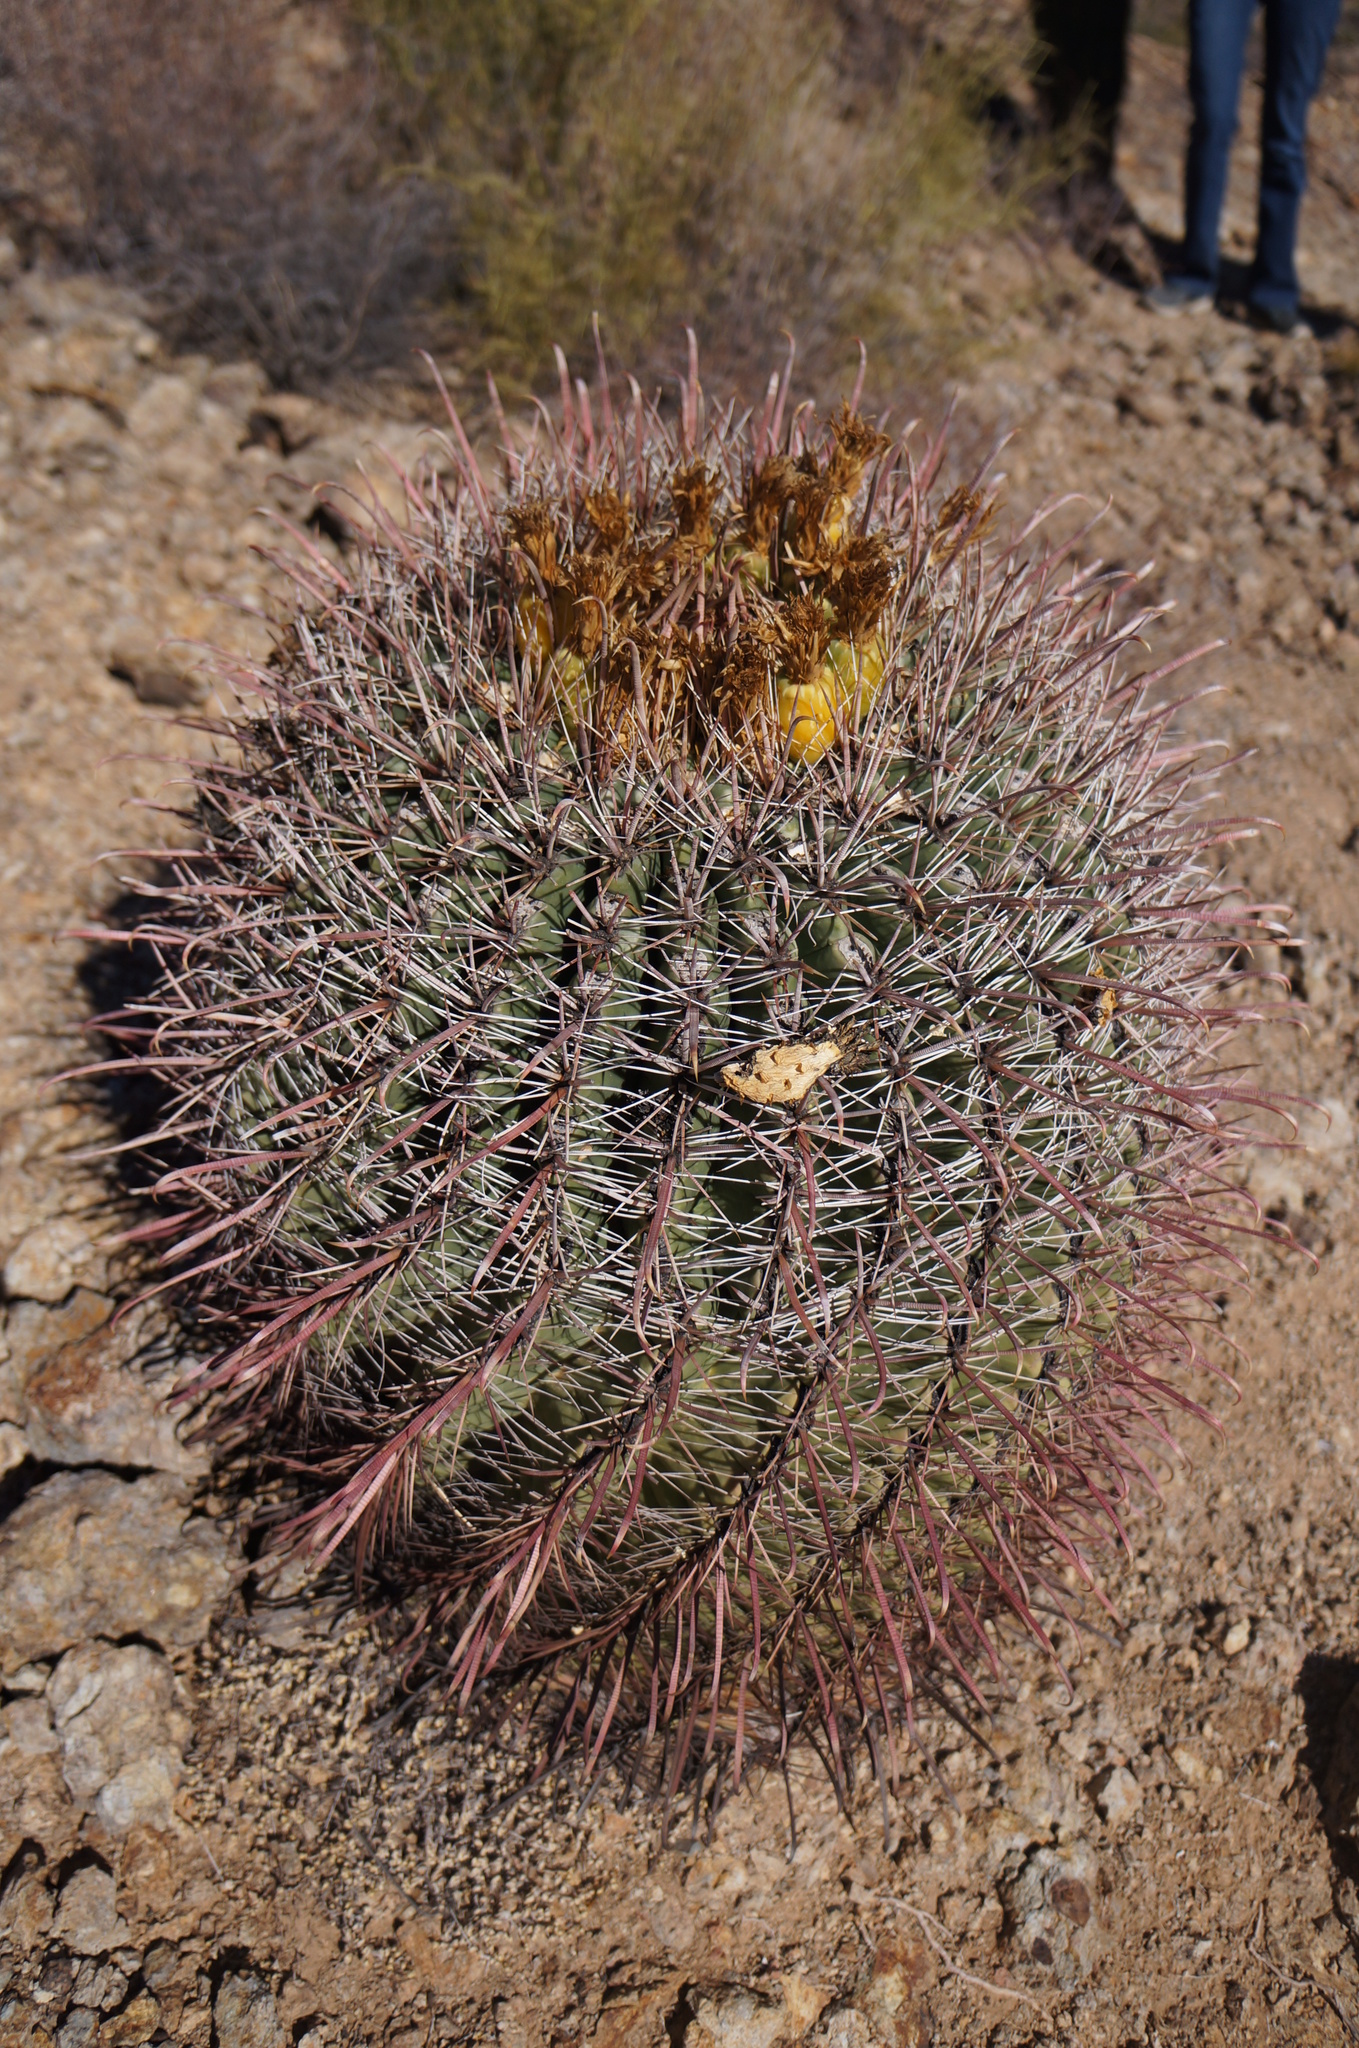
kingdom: Plantae
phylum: Tracheophyta
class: Magnoliopsida
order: Caryophyllales
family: Cactaceae
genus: Ferocactus
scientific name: Ferocactus wislizeni
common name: Candy barrel cactus
